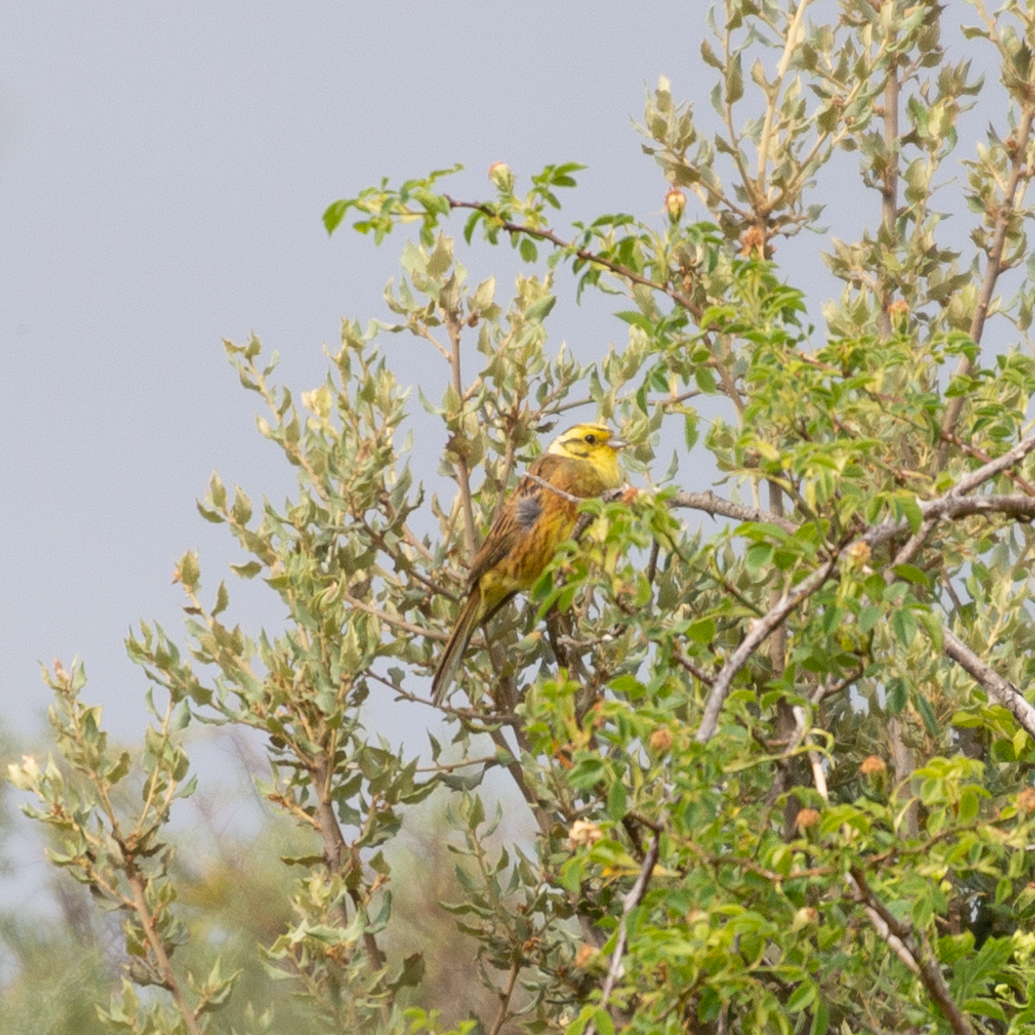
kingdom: Animalia
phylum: Chordata
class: Aves
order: Passeriformes
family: Emberizidae
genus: Emberiza
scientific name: Emberiza citrinella
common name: Yellowhammer
